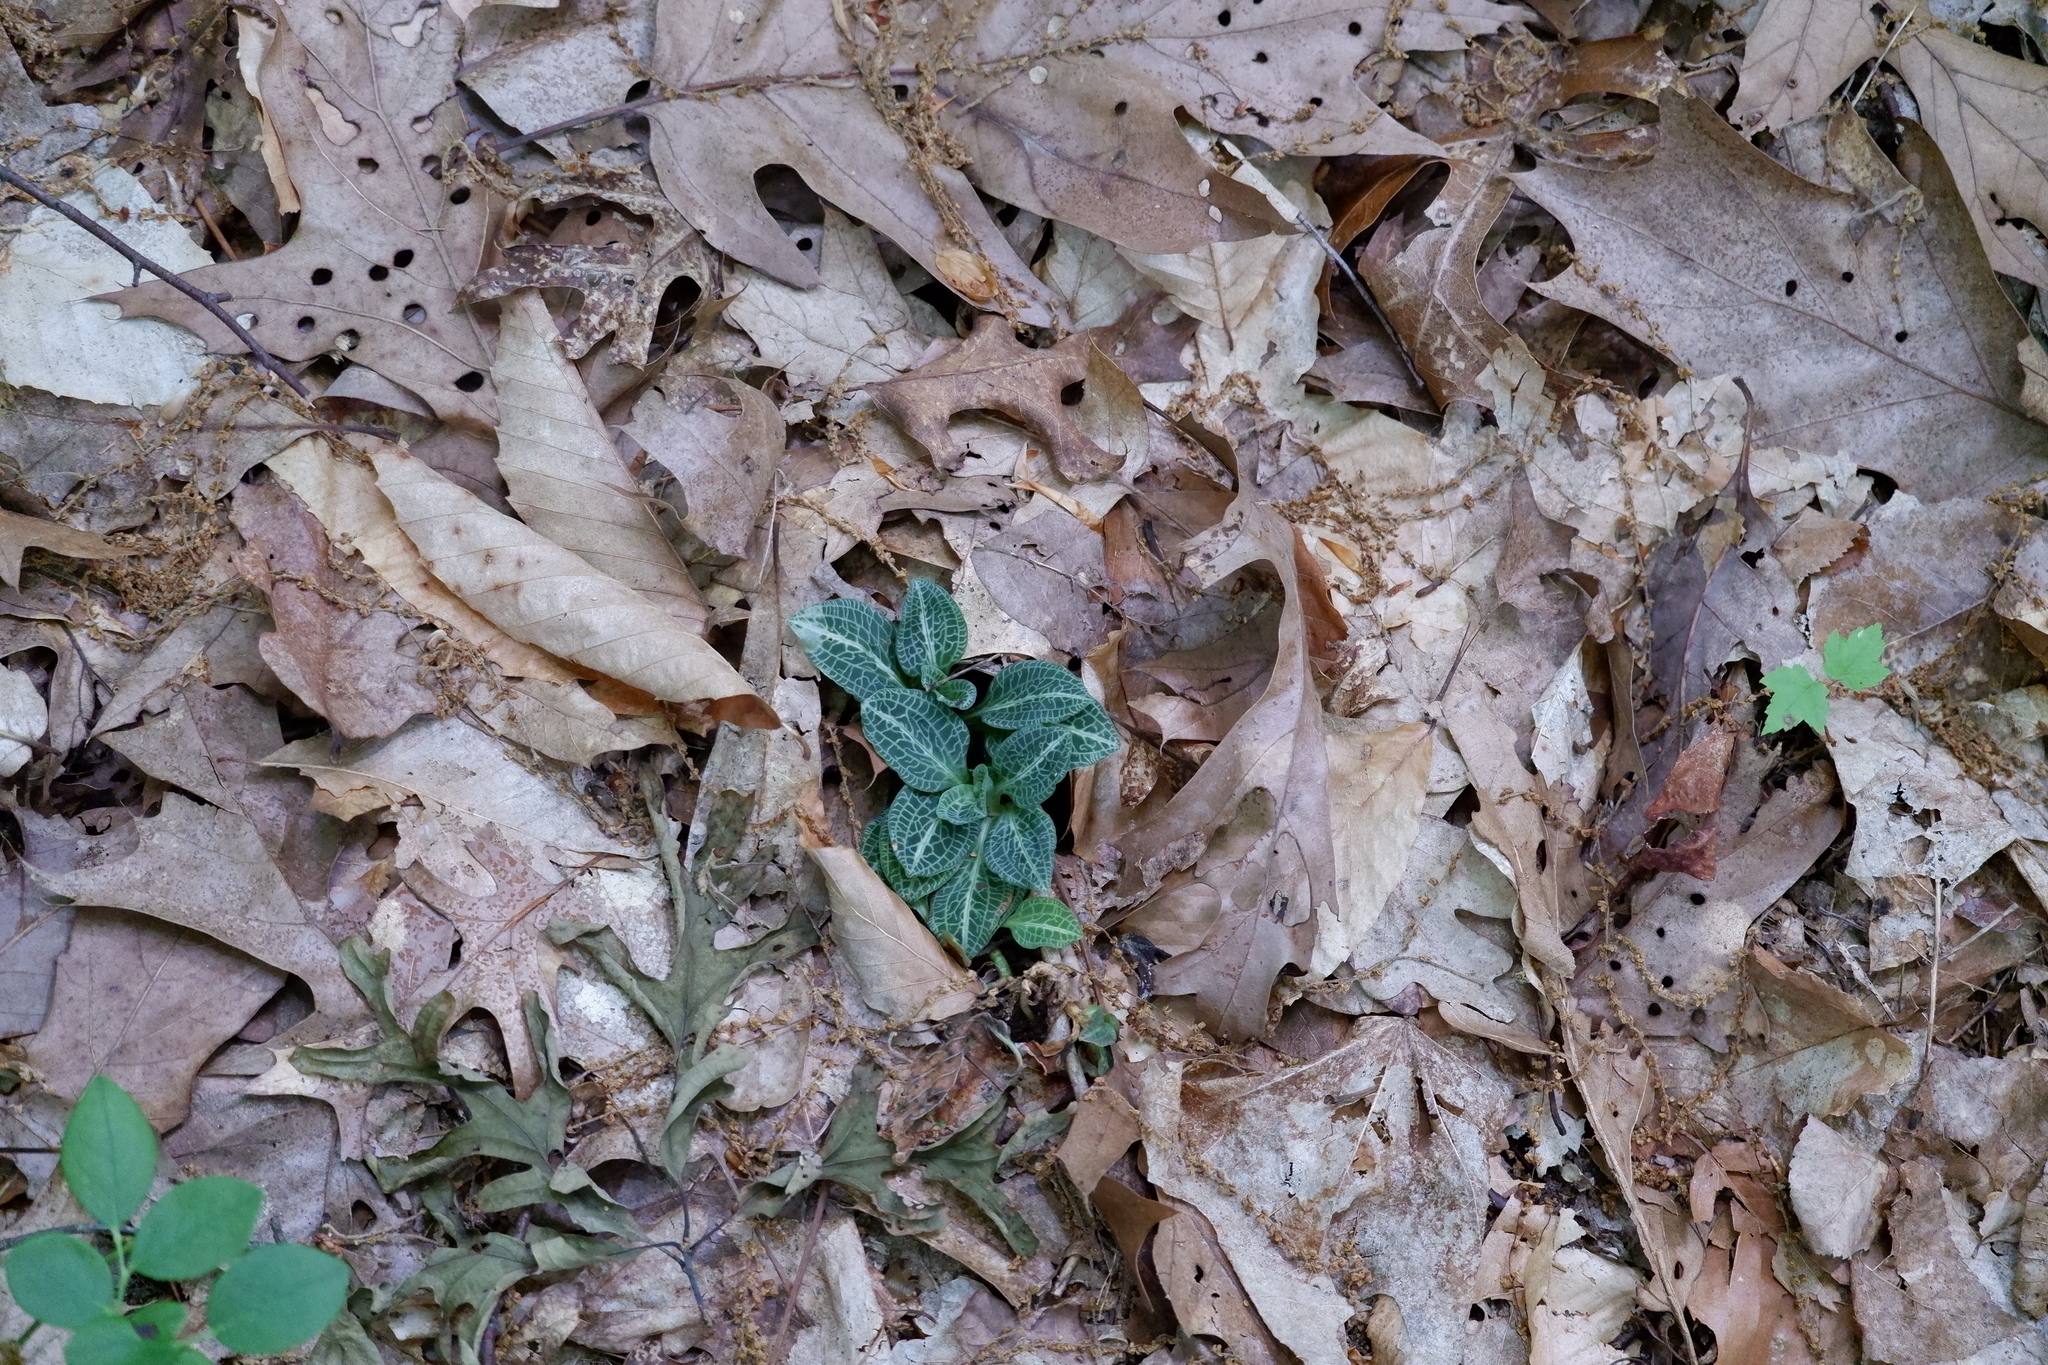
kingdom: Plantae
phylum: Tracheophyta
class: Liliopsida
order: Asparagales
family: Orchidaceae
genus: Goodyera
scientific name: Goodyera pubescens
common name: Downy rattlesnake-plantain
